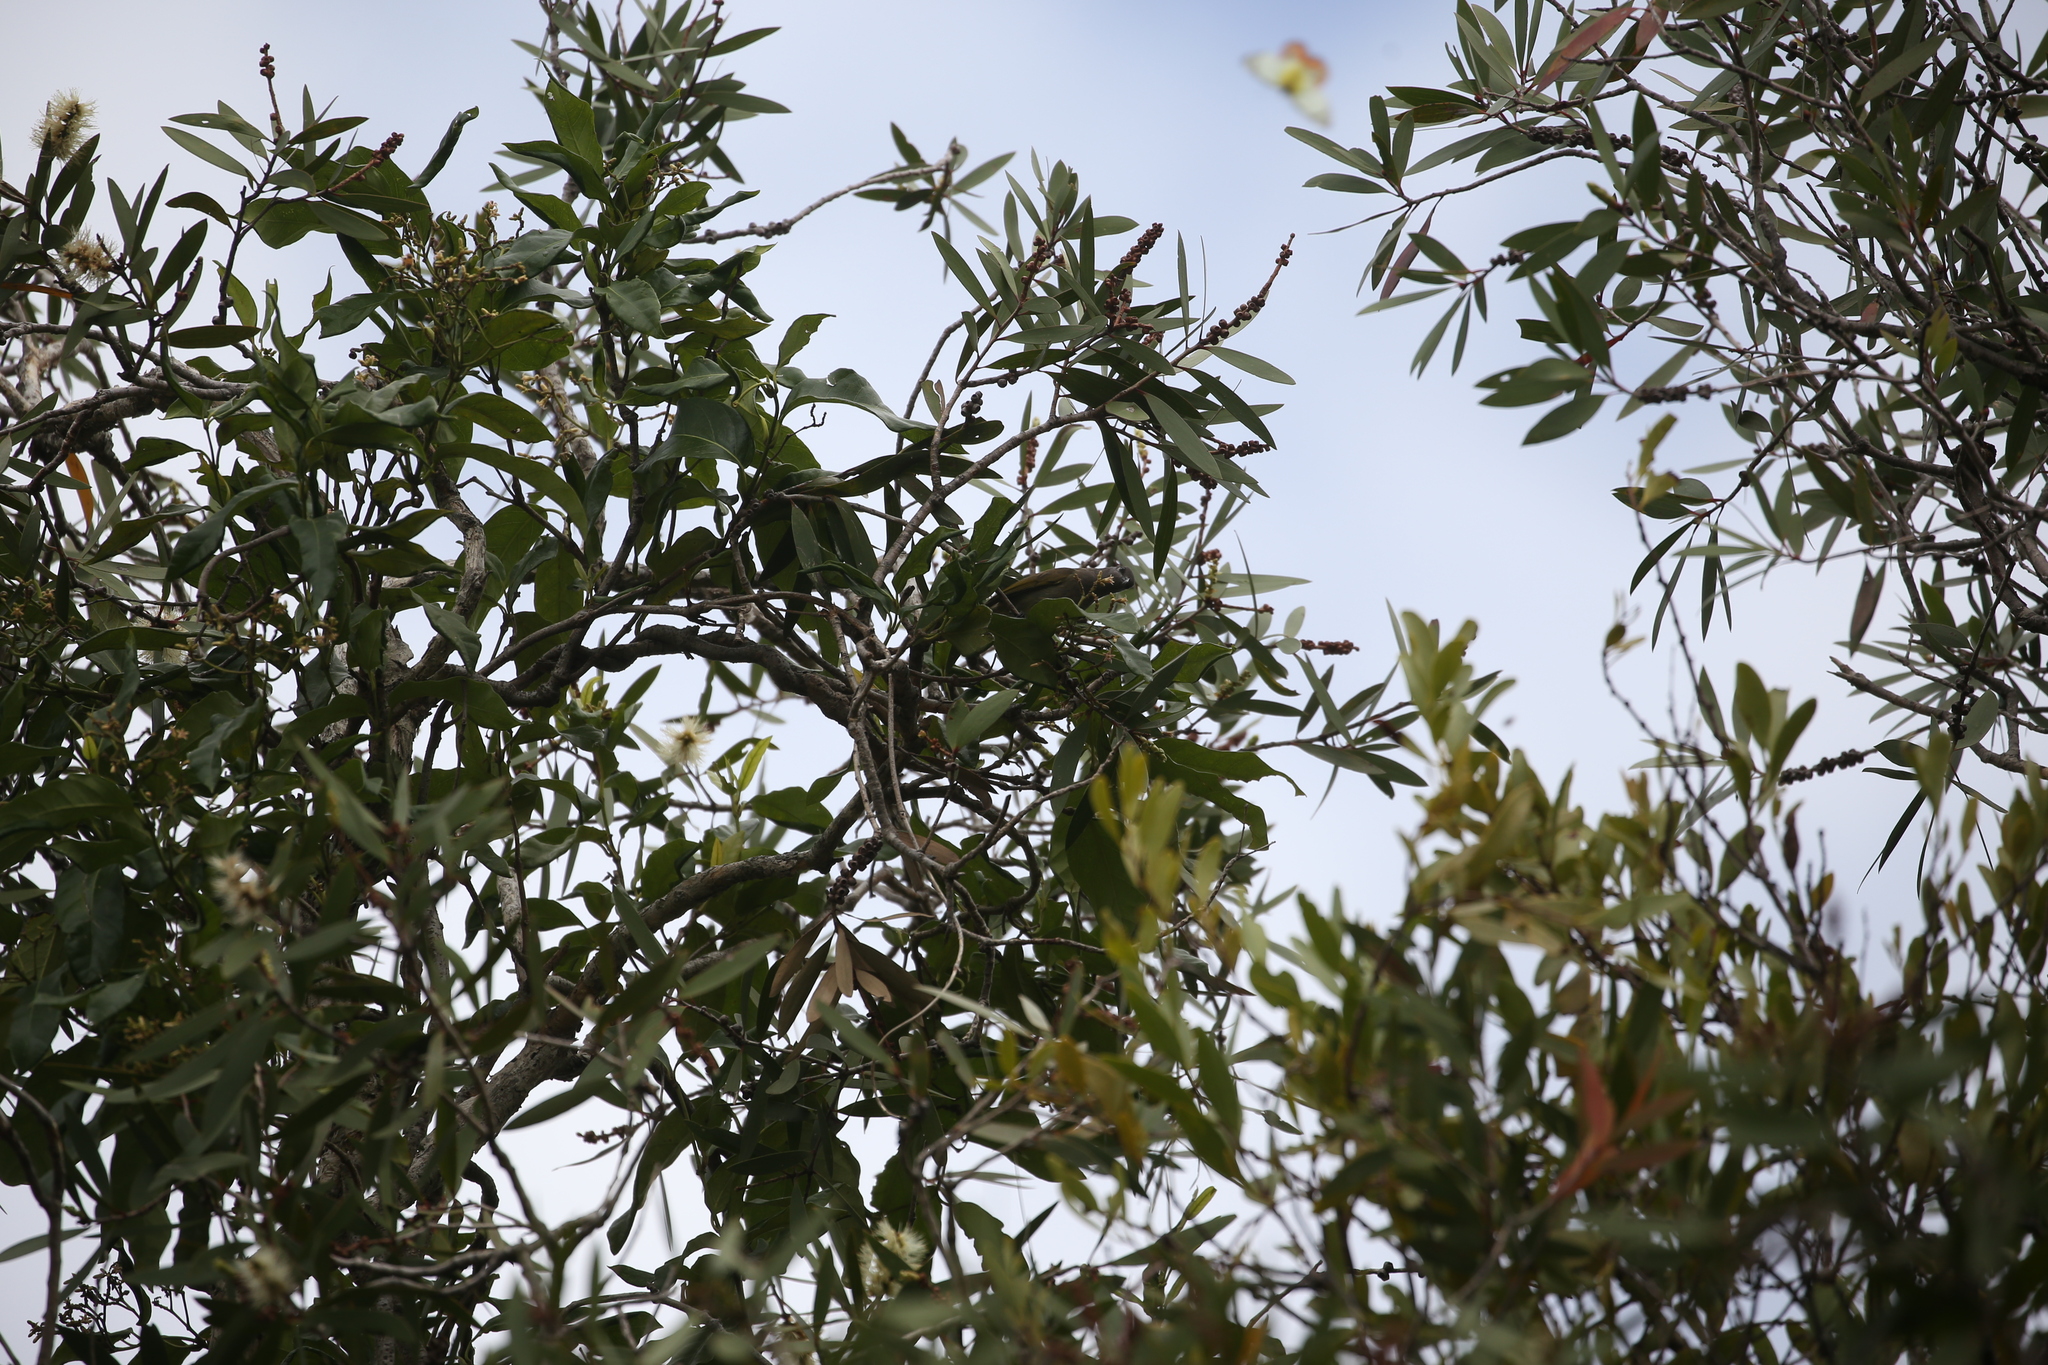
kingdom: Animalia
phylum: Chordata
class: Aves
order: Passeriformes
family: Meliphagidae
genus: Lichmera
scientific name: Lichmera indistincta
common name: Brown honeyeater
